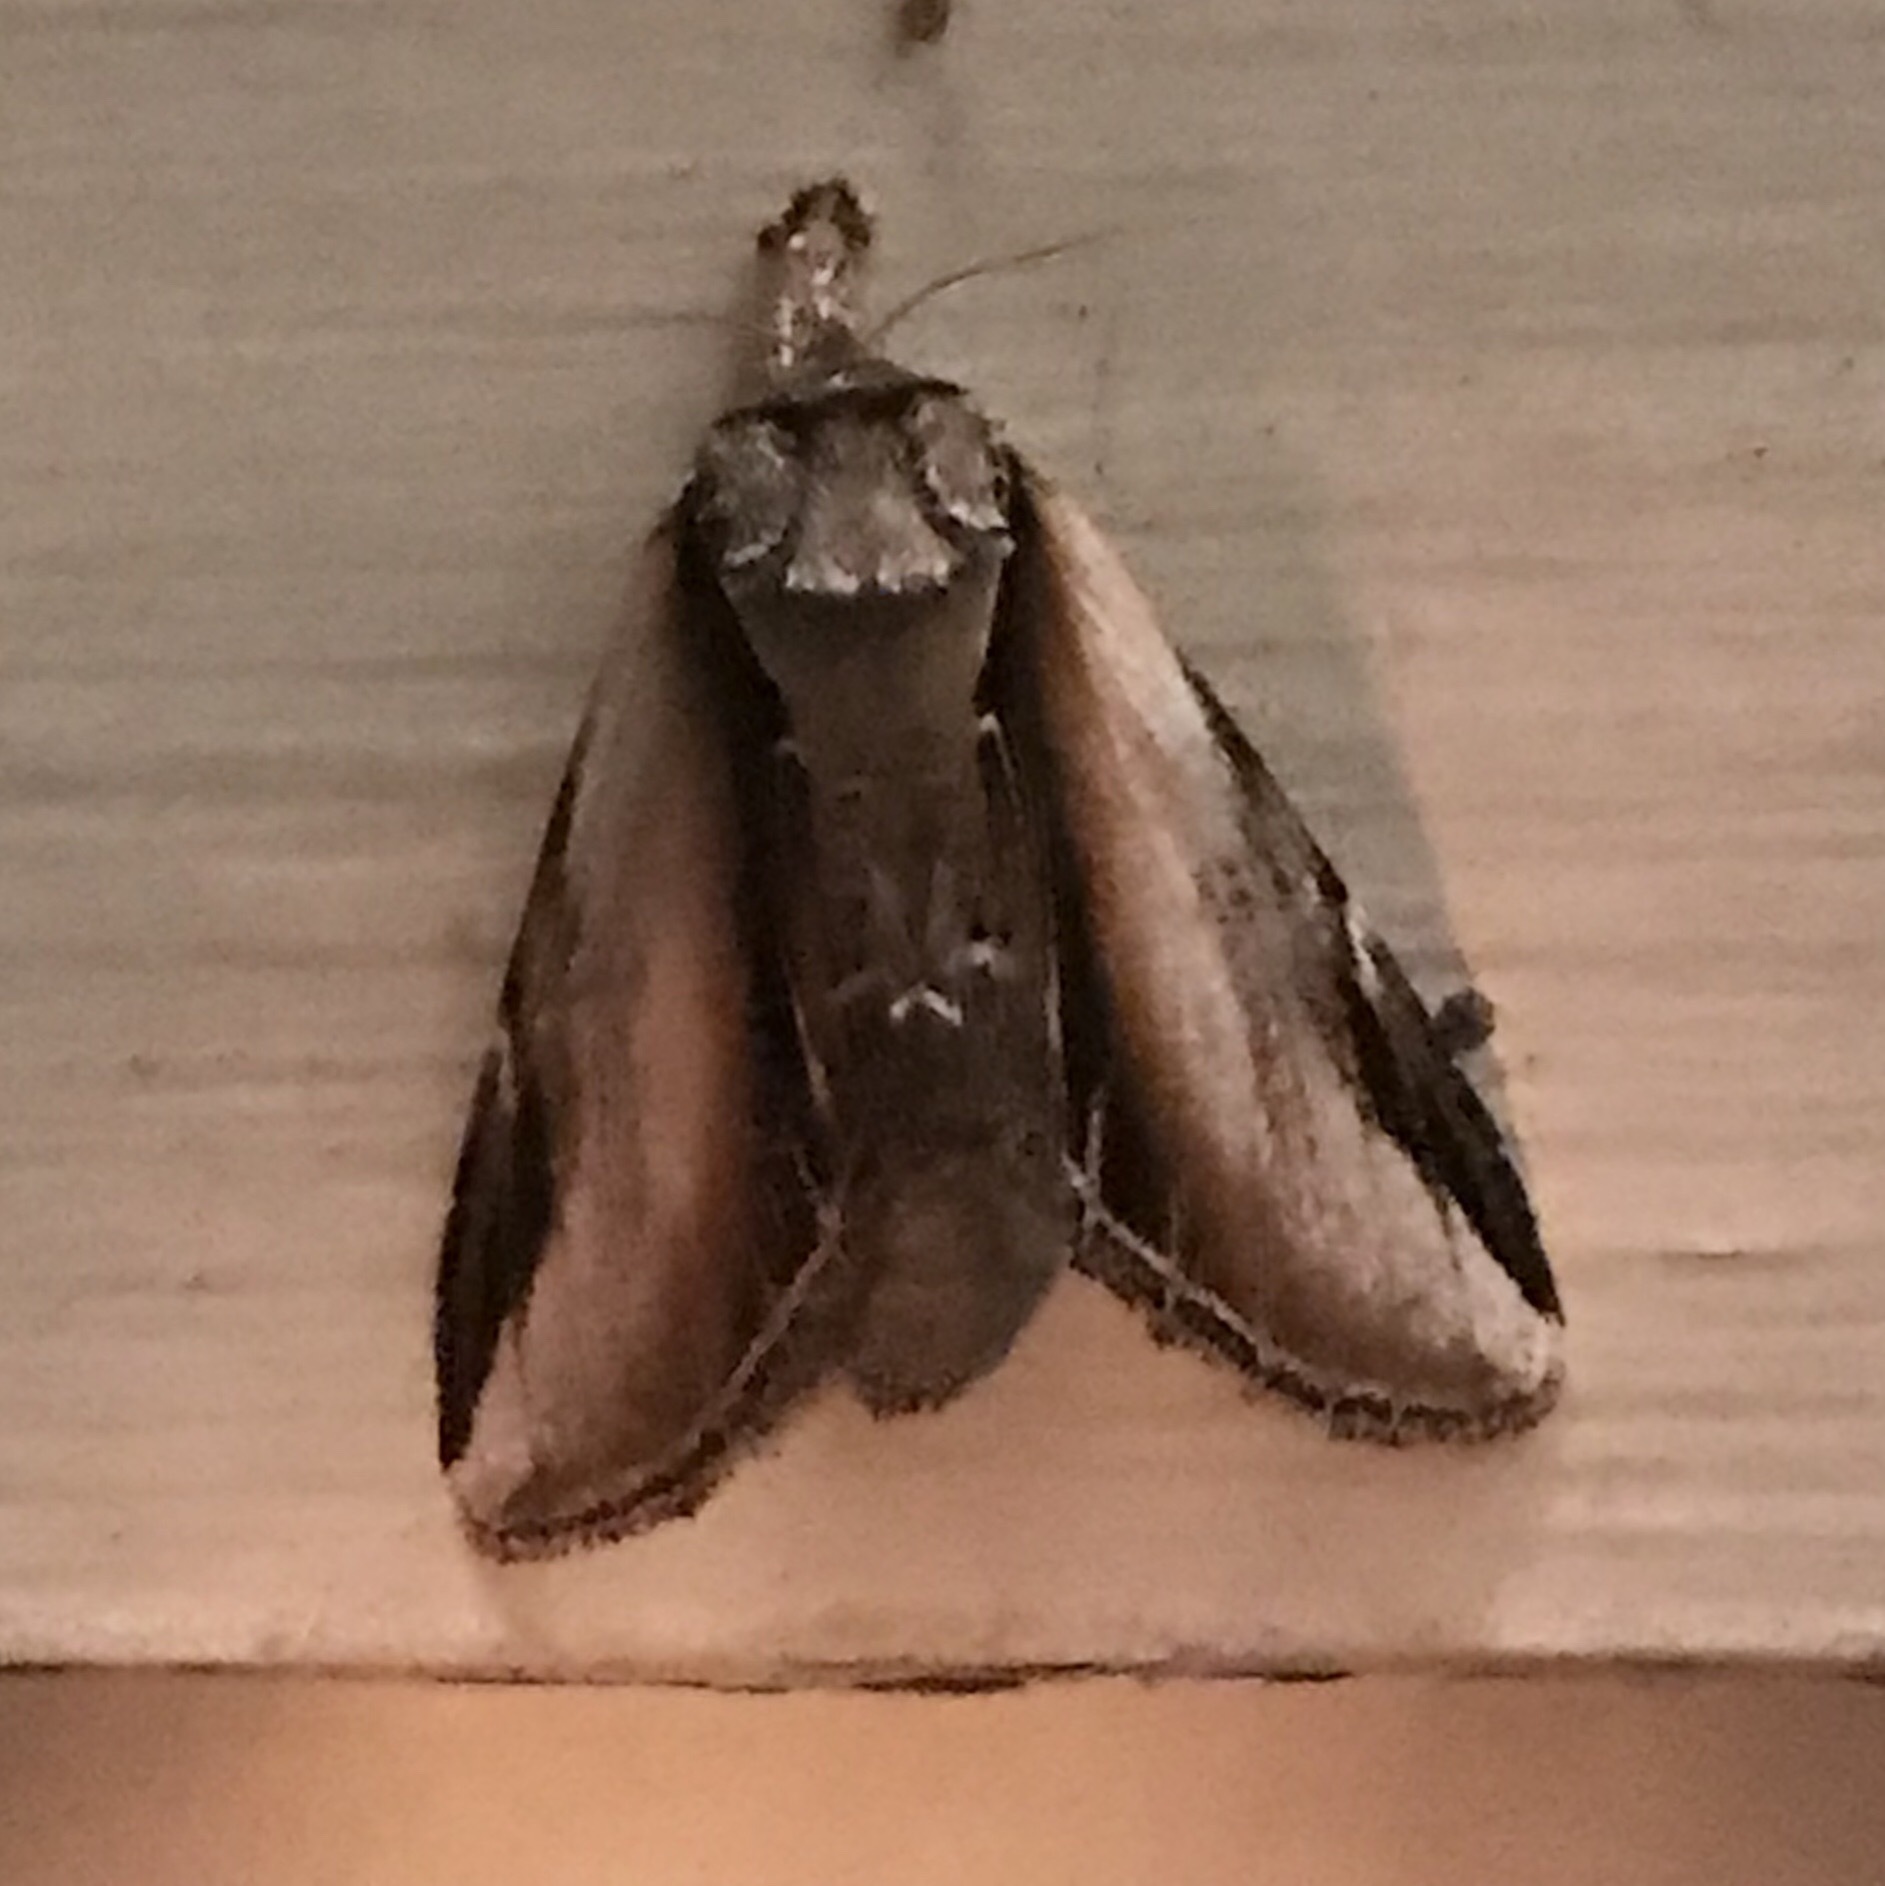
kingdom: Animalia
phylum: Arthropoda
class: Insecta
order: Lepidoptera
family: Notodontidae
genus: Pheosia
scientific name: Pheosia rimosa
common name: Black-rimmed prominent
